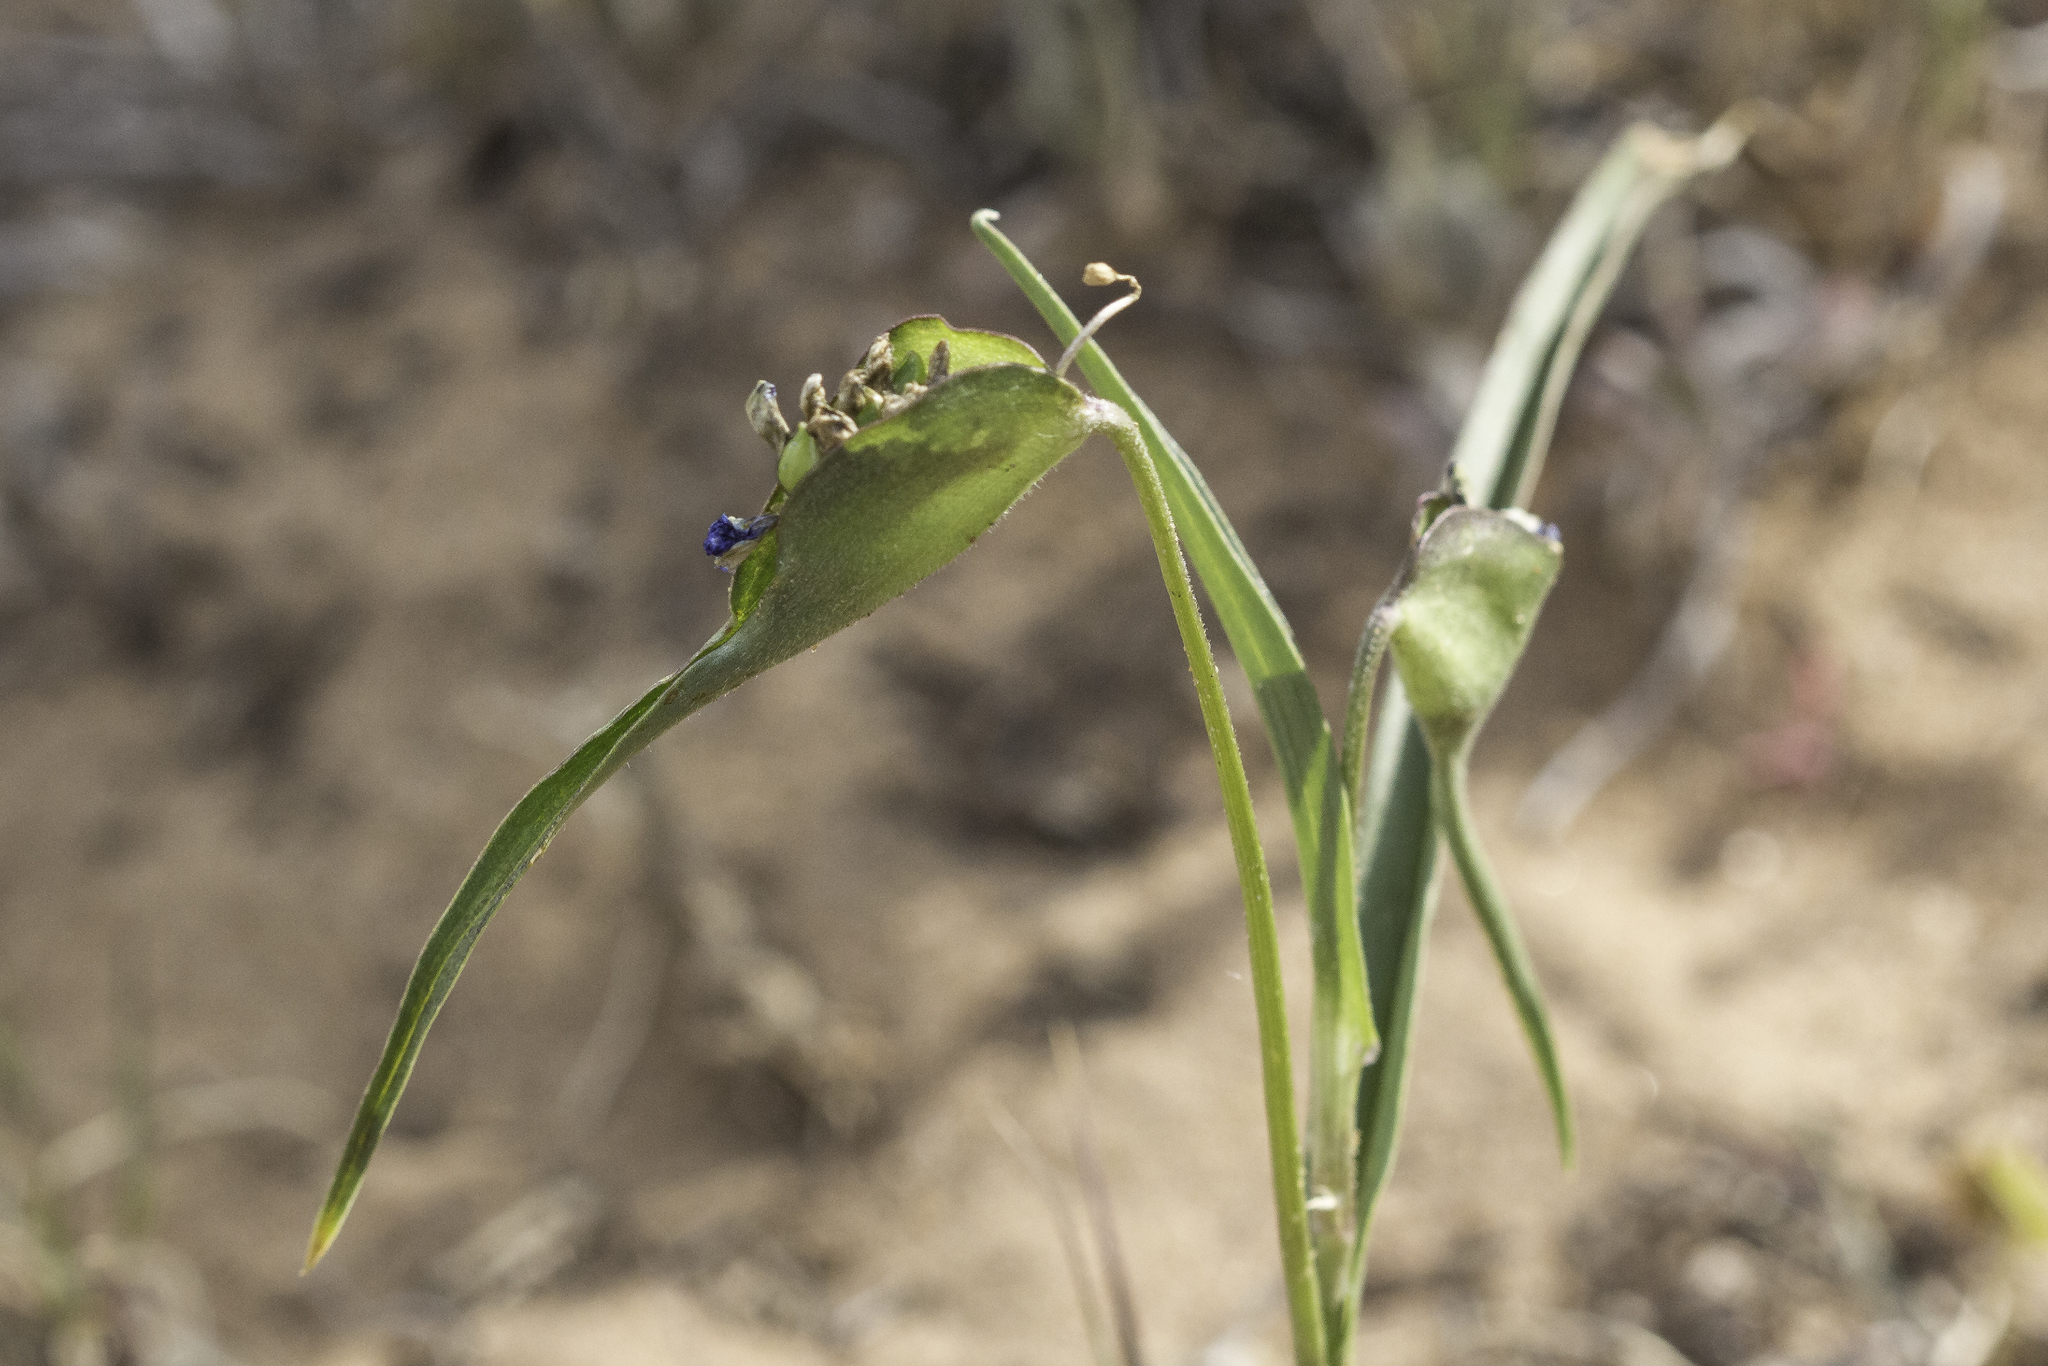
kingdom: Plantae
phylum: Tracheophyta
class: Liliopsida
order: Commelinales
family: Commelinaceae
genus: Commelina
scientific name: Commelina dianthifolia
